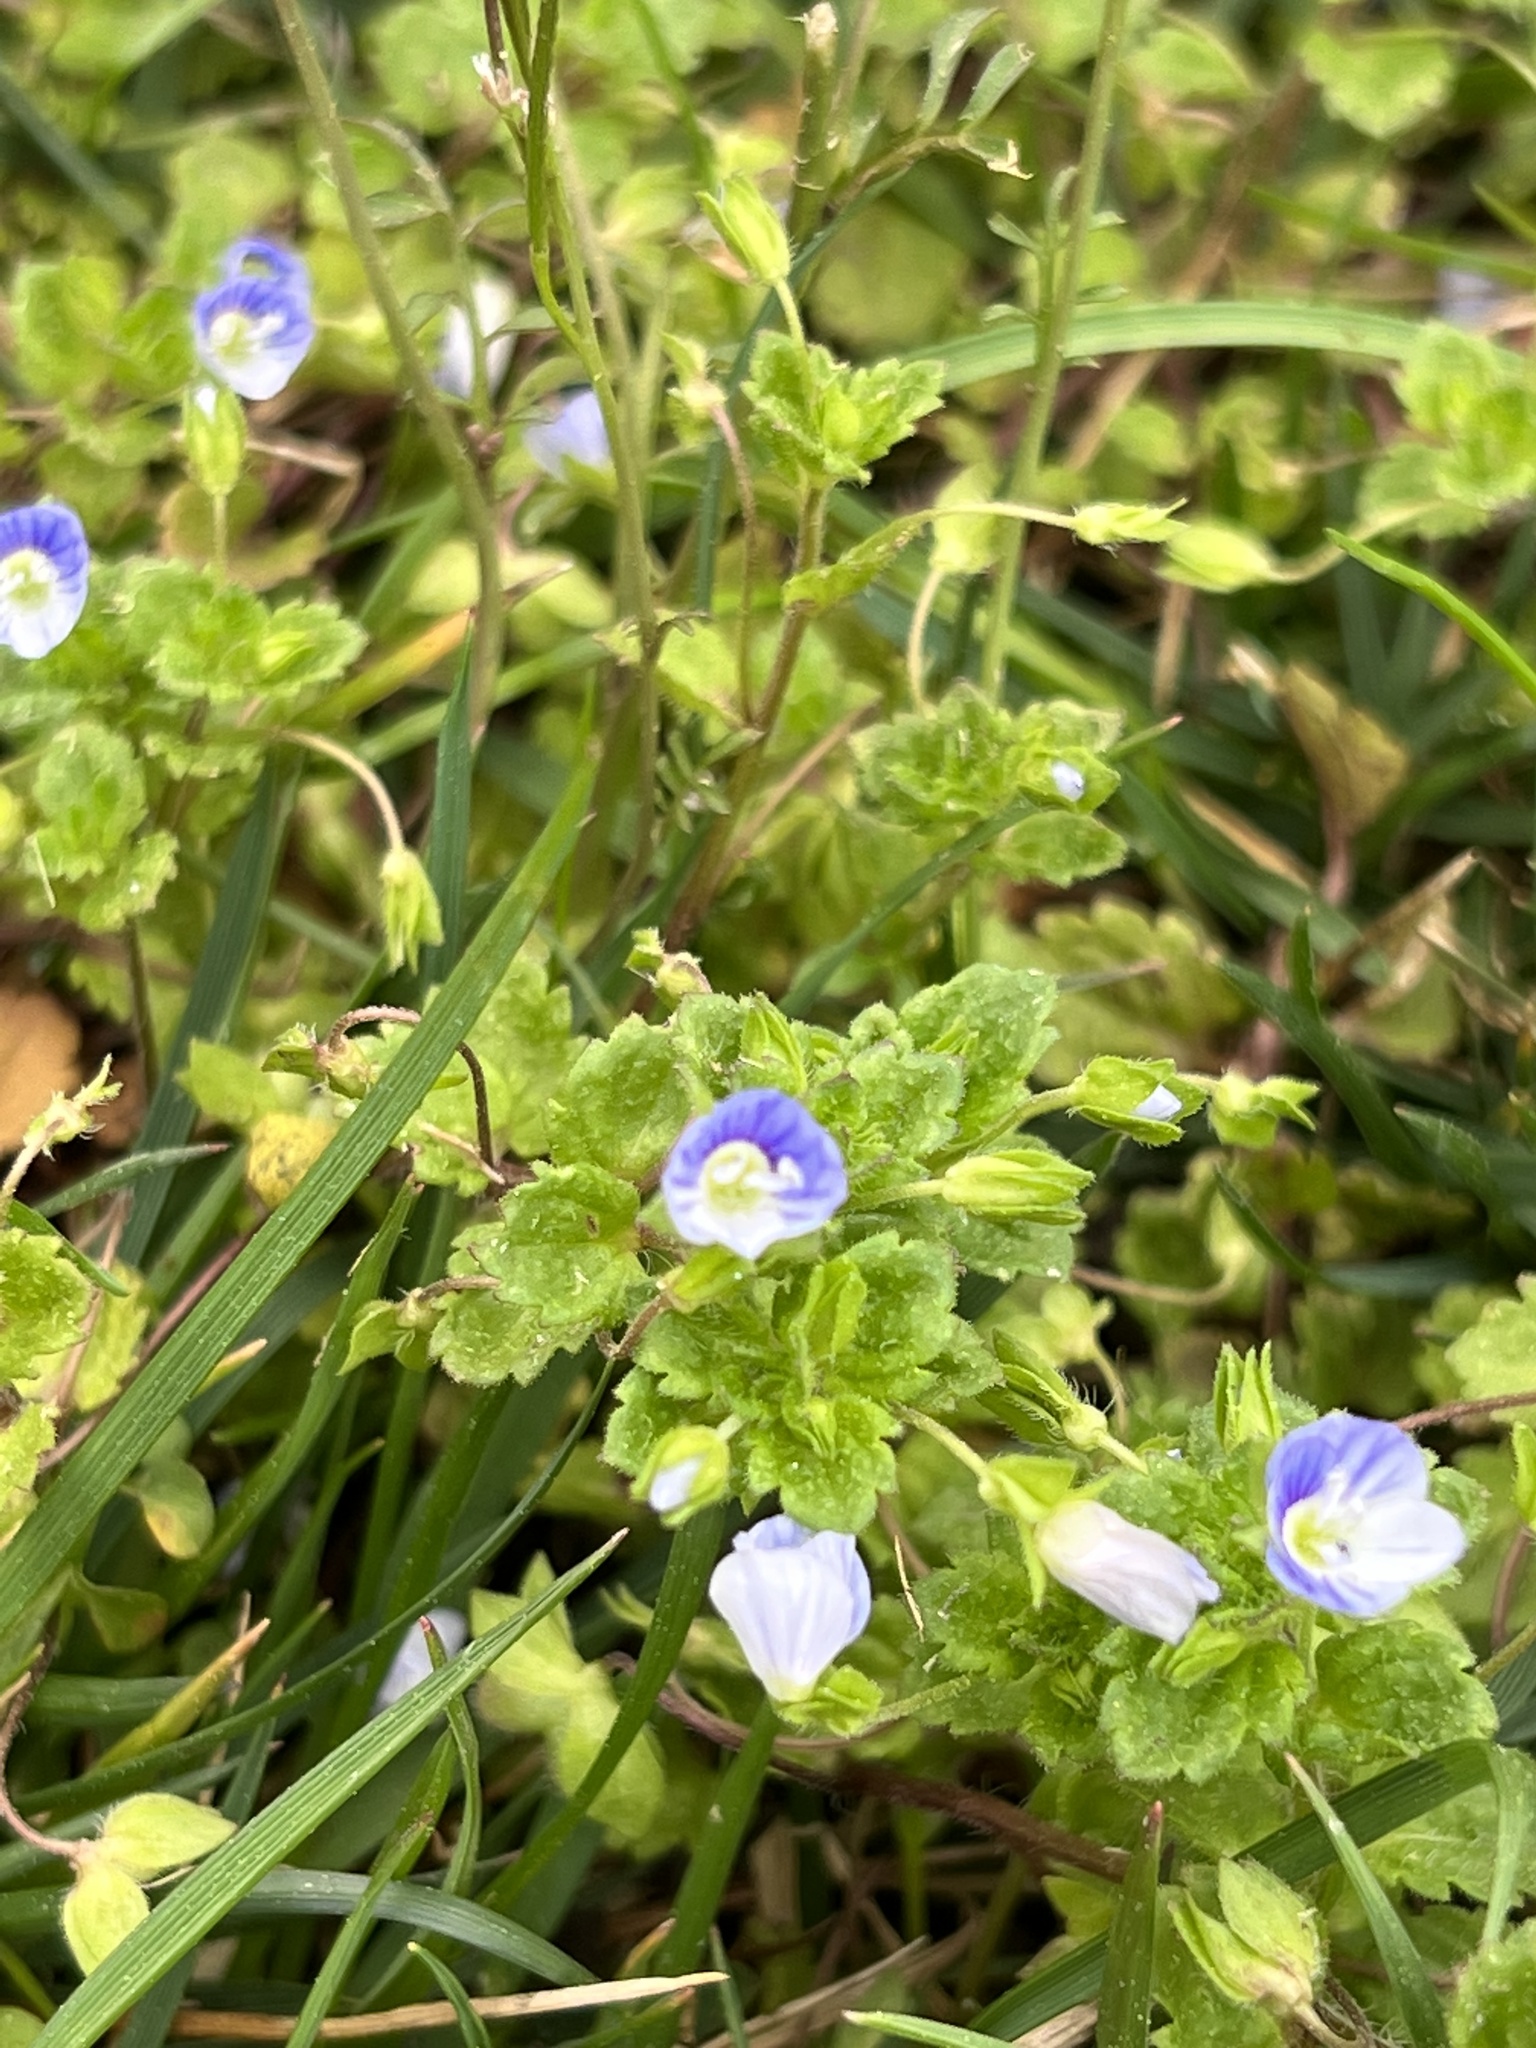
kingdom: Plantae
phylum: Tracheophyta
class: Magnoliopsida
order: Lamiales
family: Plantaginaceae
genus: Veronica
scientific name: Veronica persica
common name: Common field-speedwell
